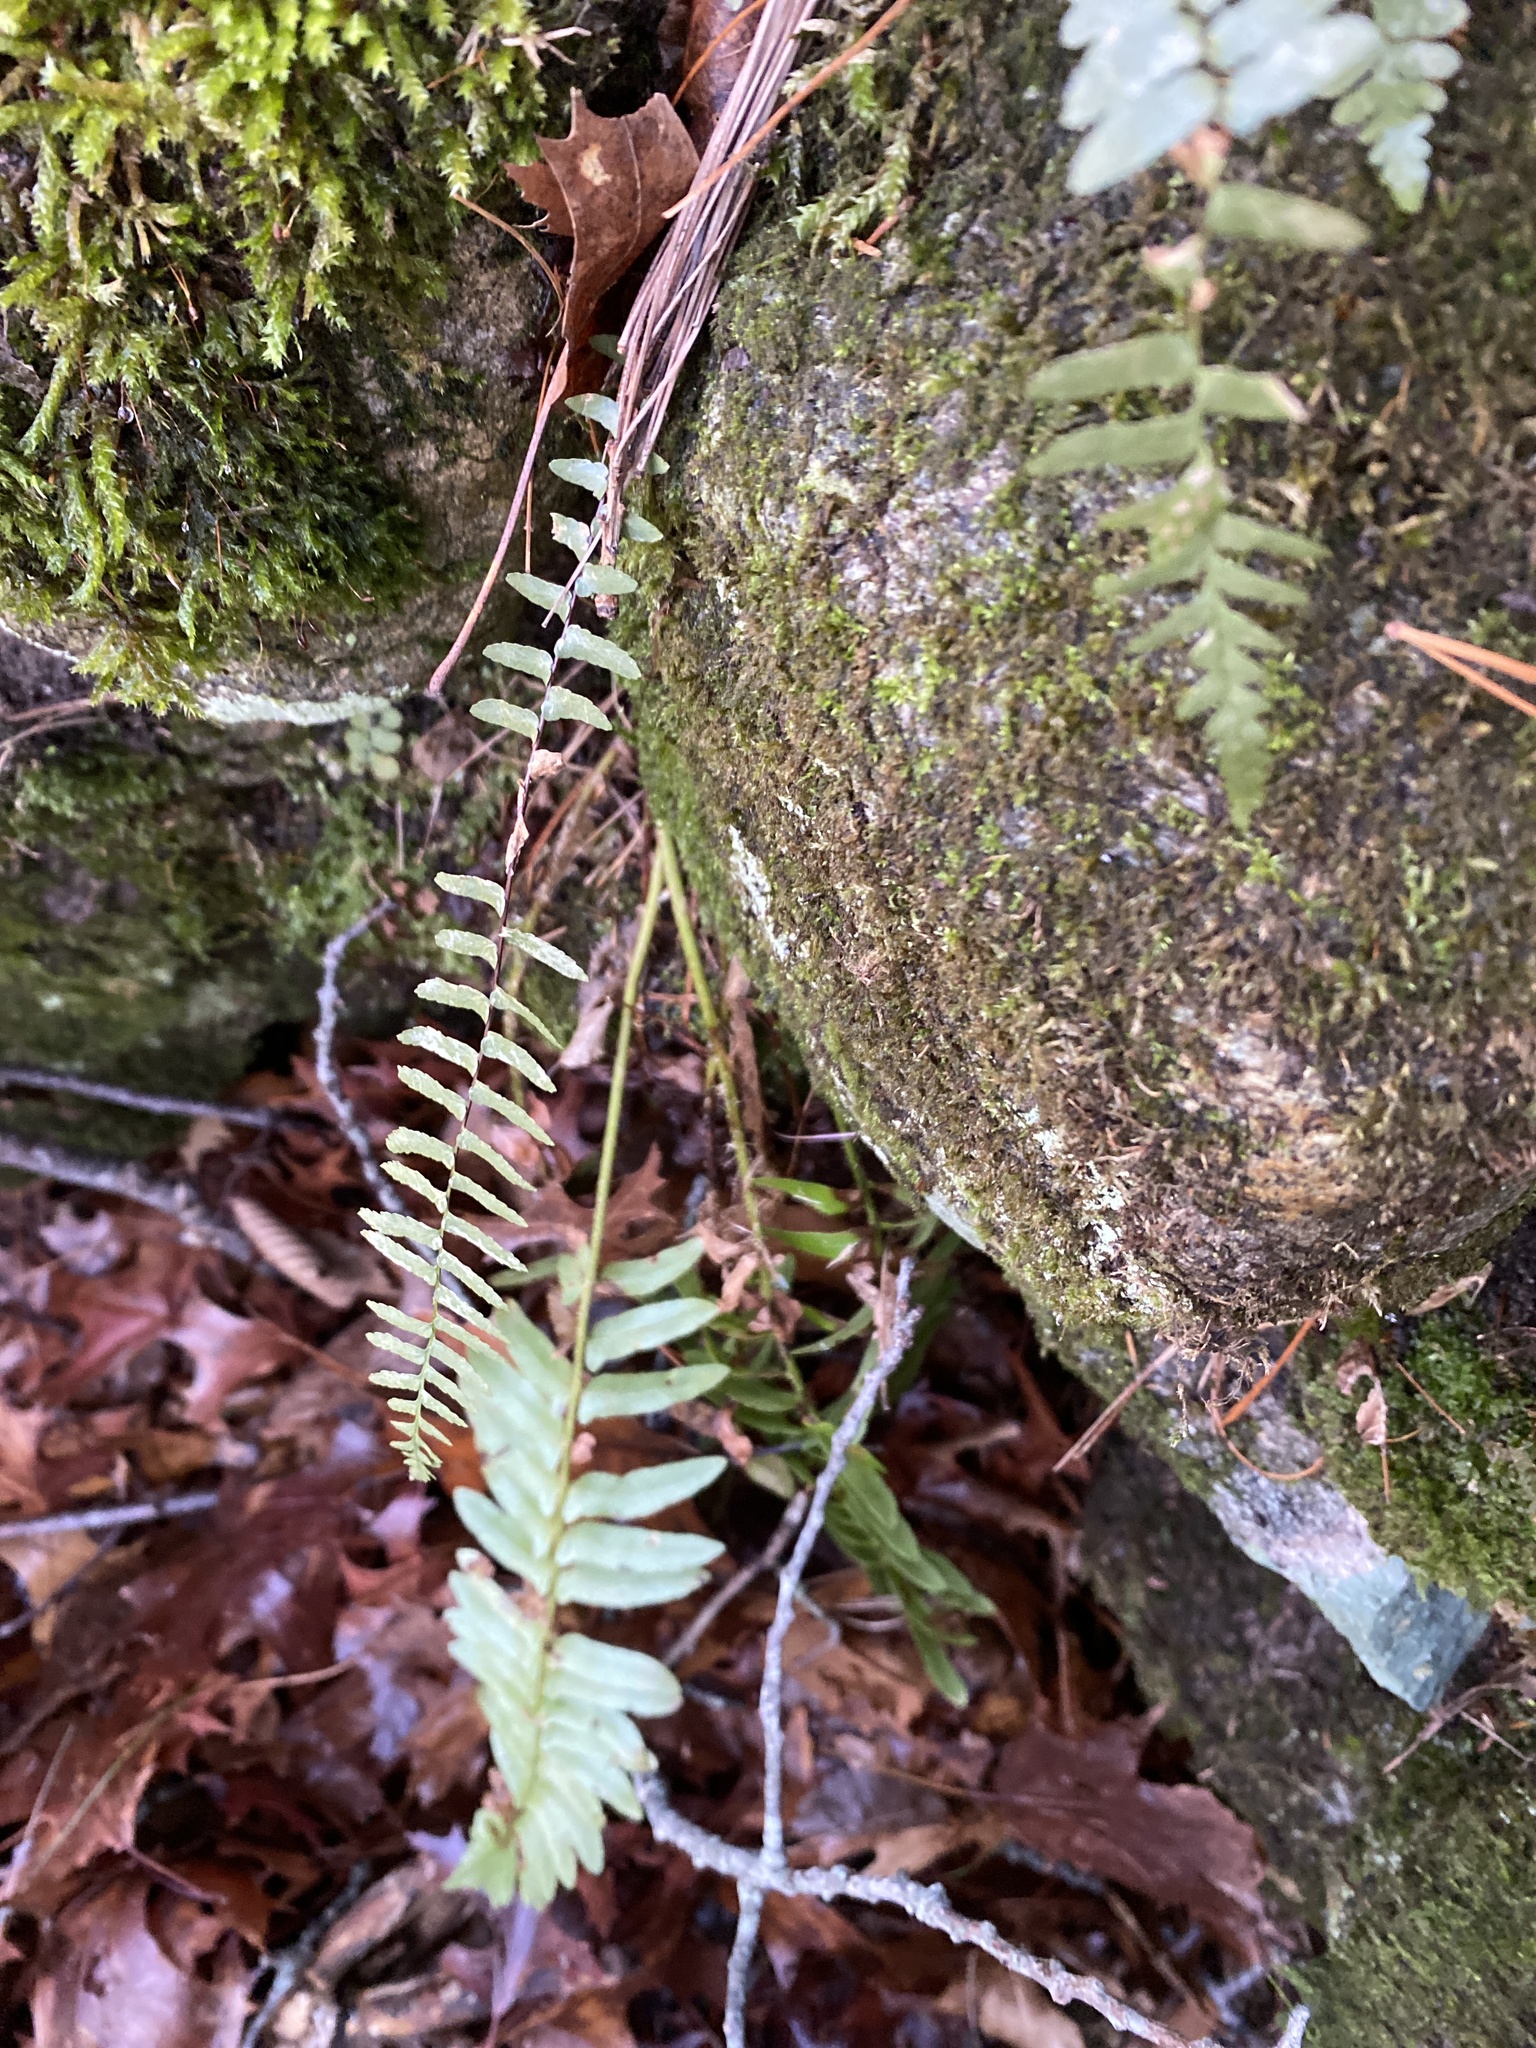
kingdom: Plantae
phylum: Tracheophyta
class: Polypodiopsida
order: Polypodiales
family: Aspleniaceae
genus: Asplenium
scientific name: Asplenium platyneuron
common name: Ebony spleenwort
